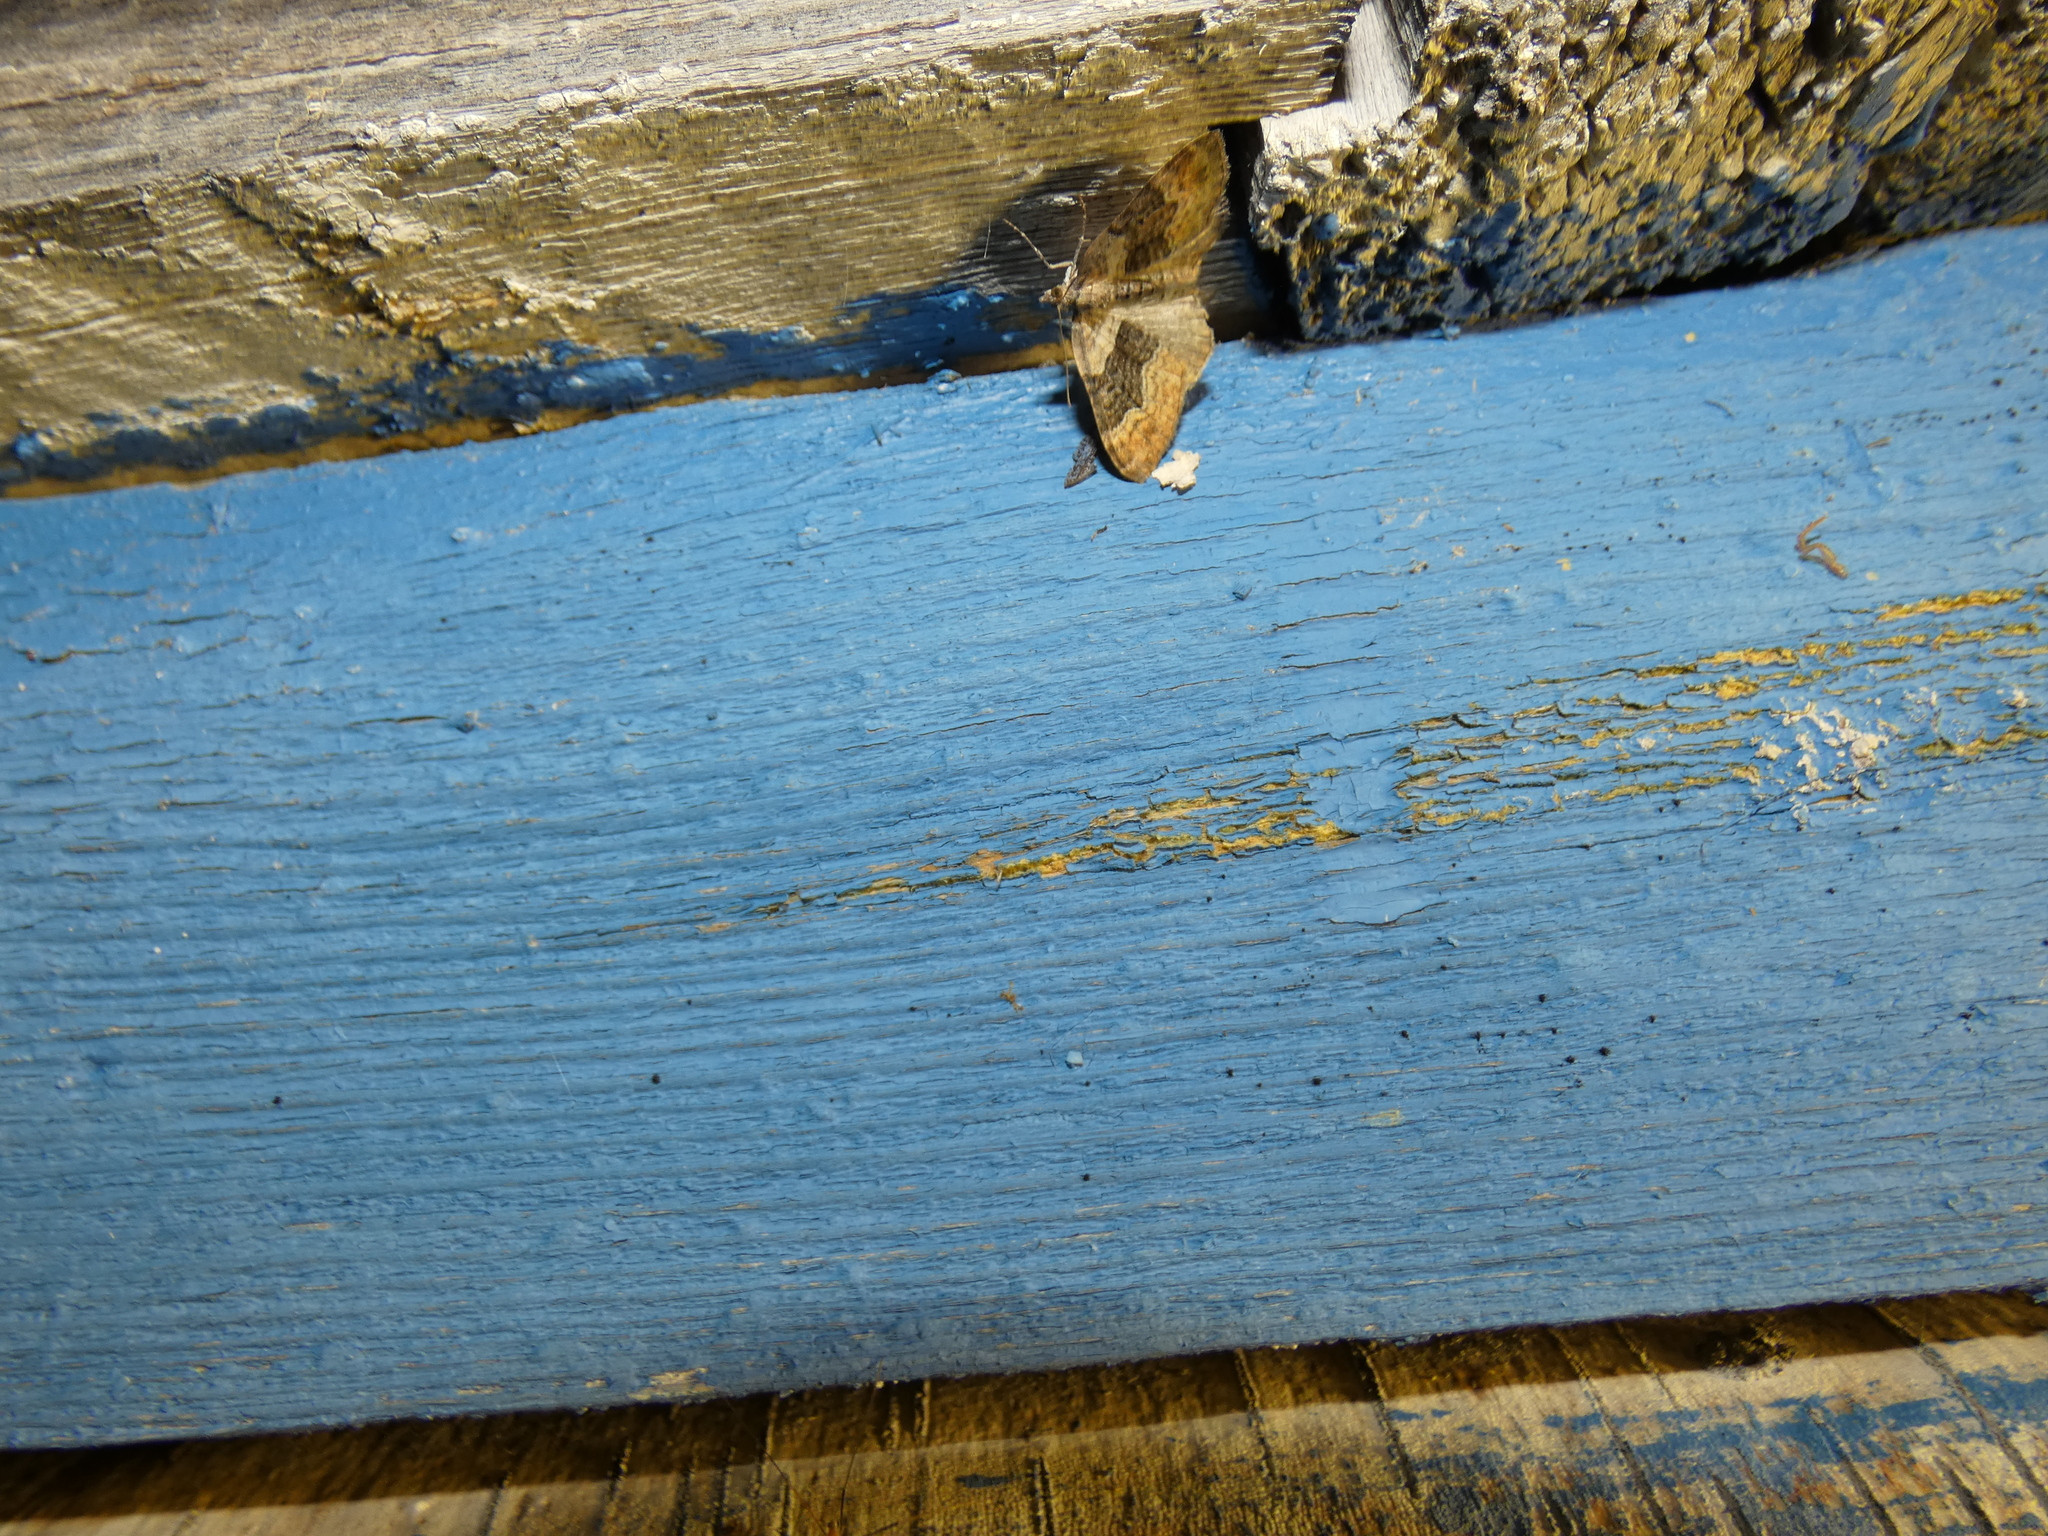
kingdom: Animalia
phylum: Arthropoda
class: Insecta
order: Lepidoptera
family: Geometridae
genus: Xanthorhoe
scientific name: Xanthorhoe quadrifasiata
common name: Large twin-spot carpet
